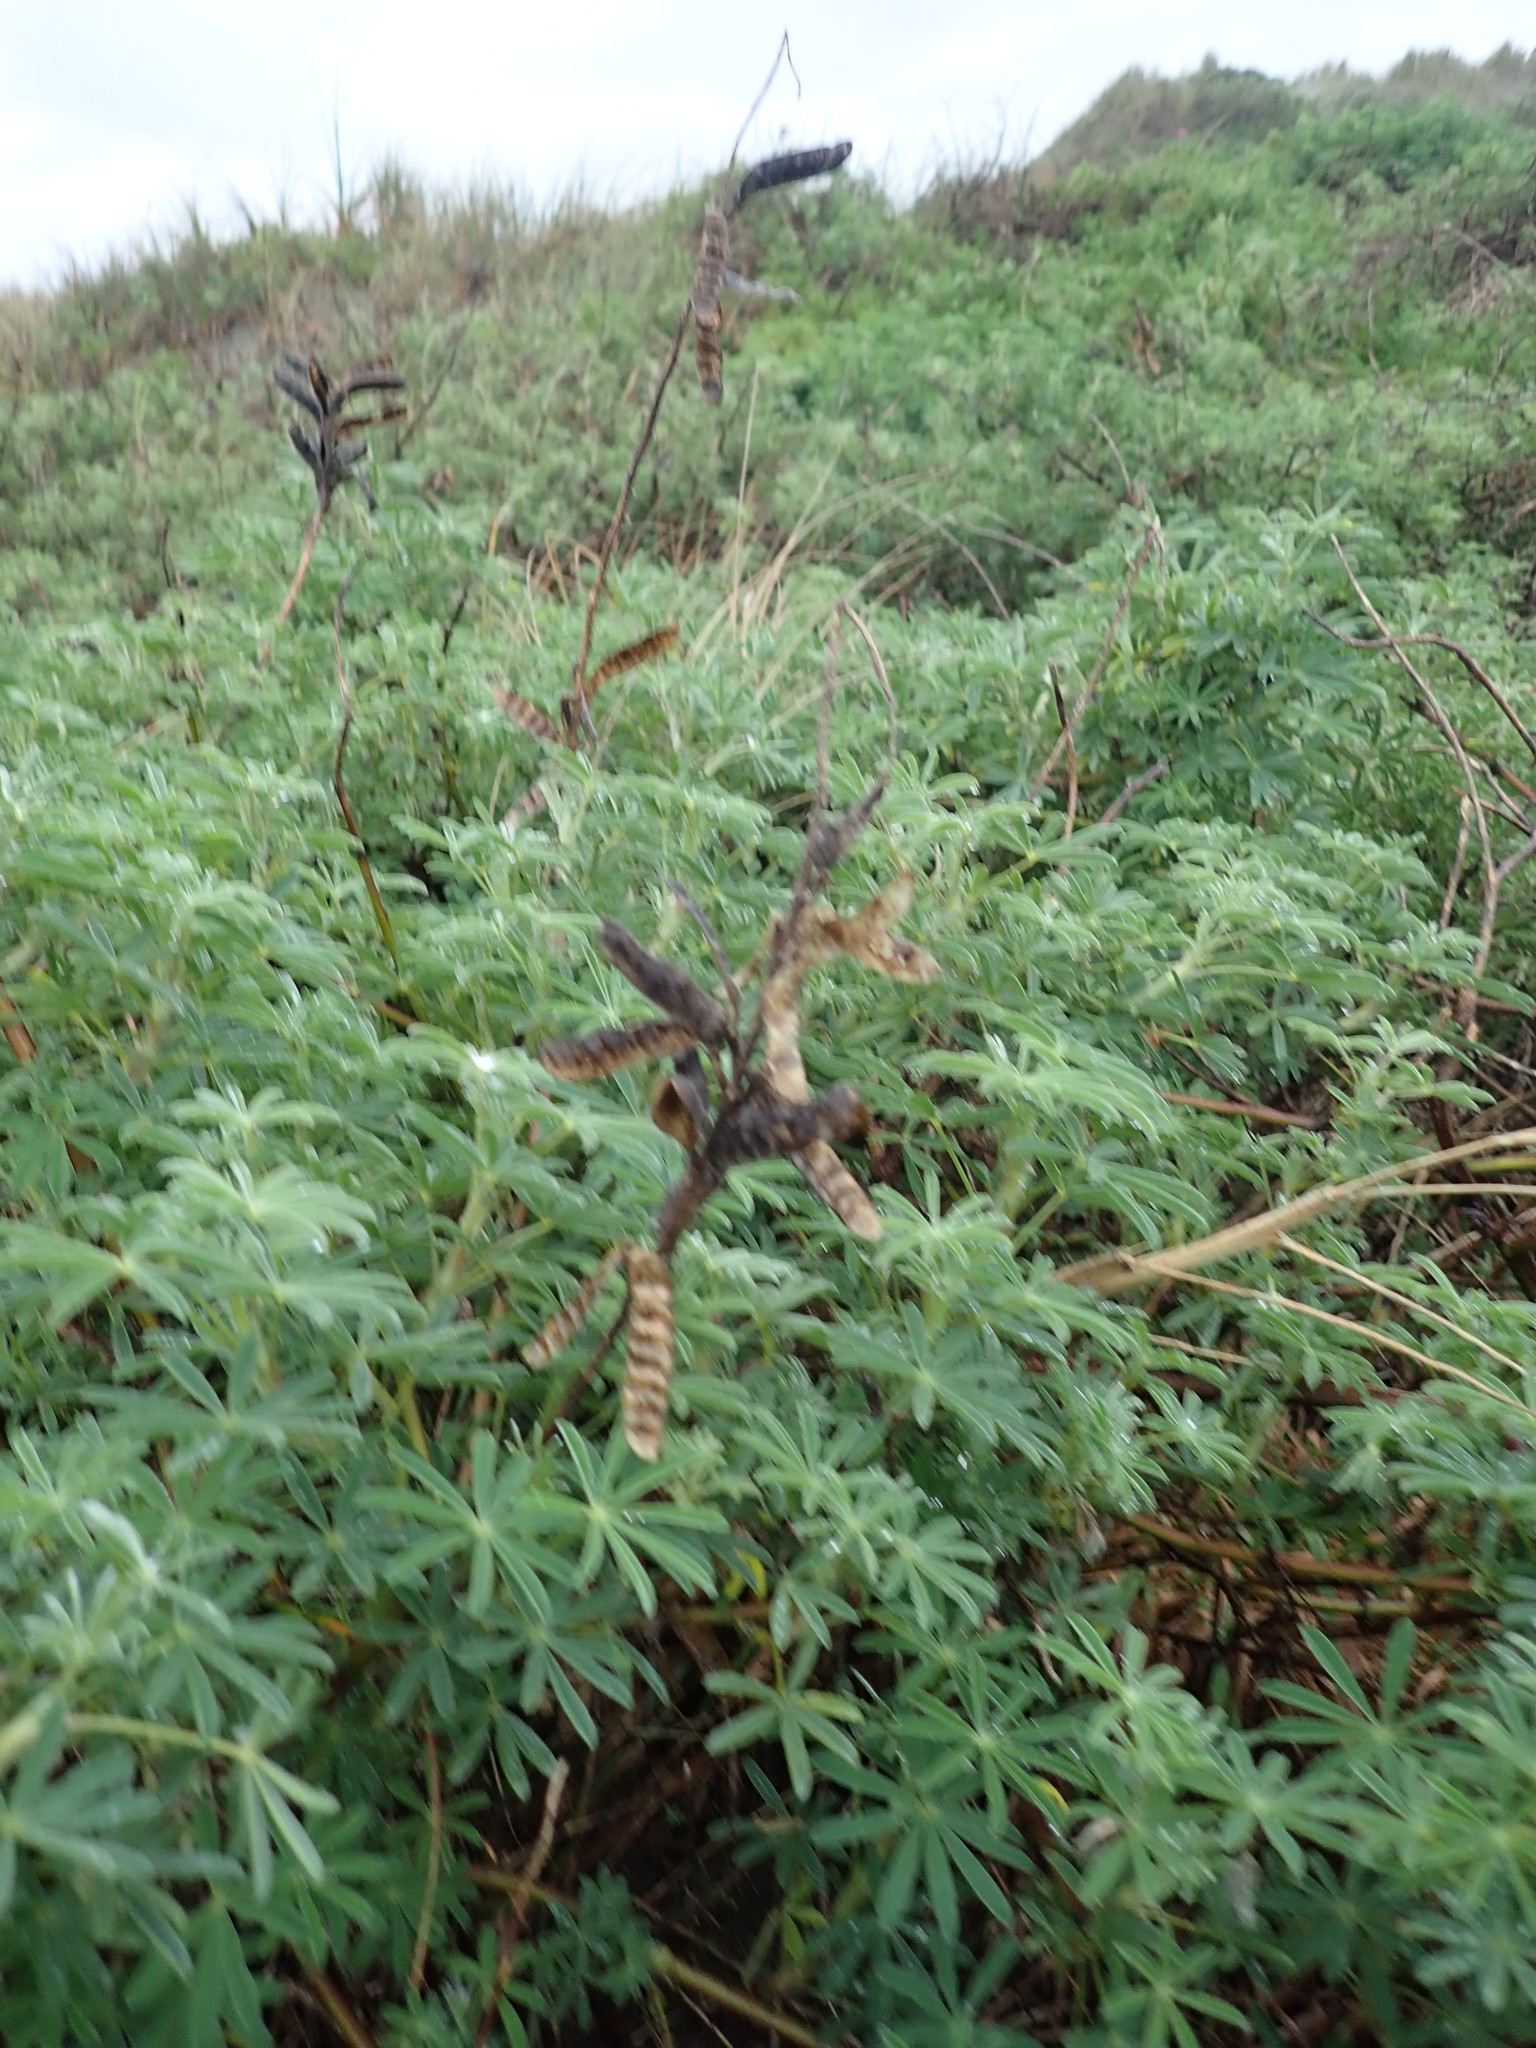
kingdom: Plantae
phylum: Tracheophyta
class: Magnoliopsida
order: Fabales
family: Fabaceae
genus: Lupinus
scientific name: Lupinus arboreus
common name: Yellow bush lupine
